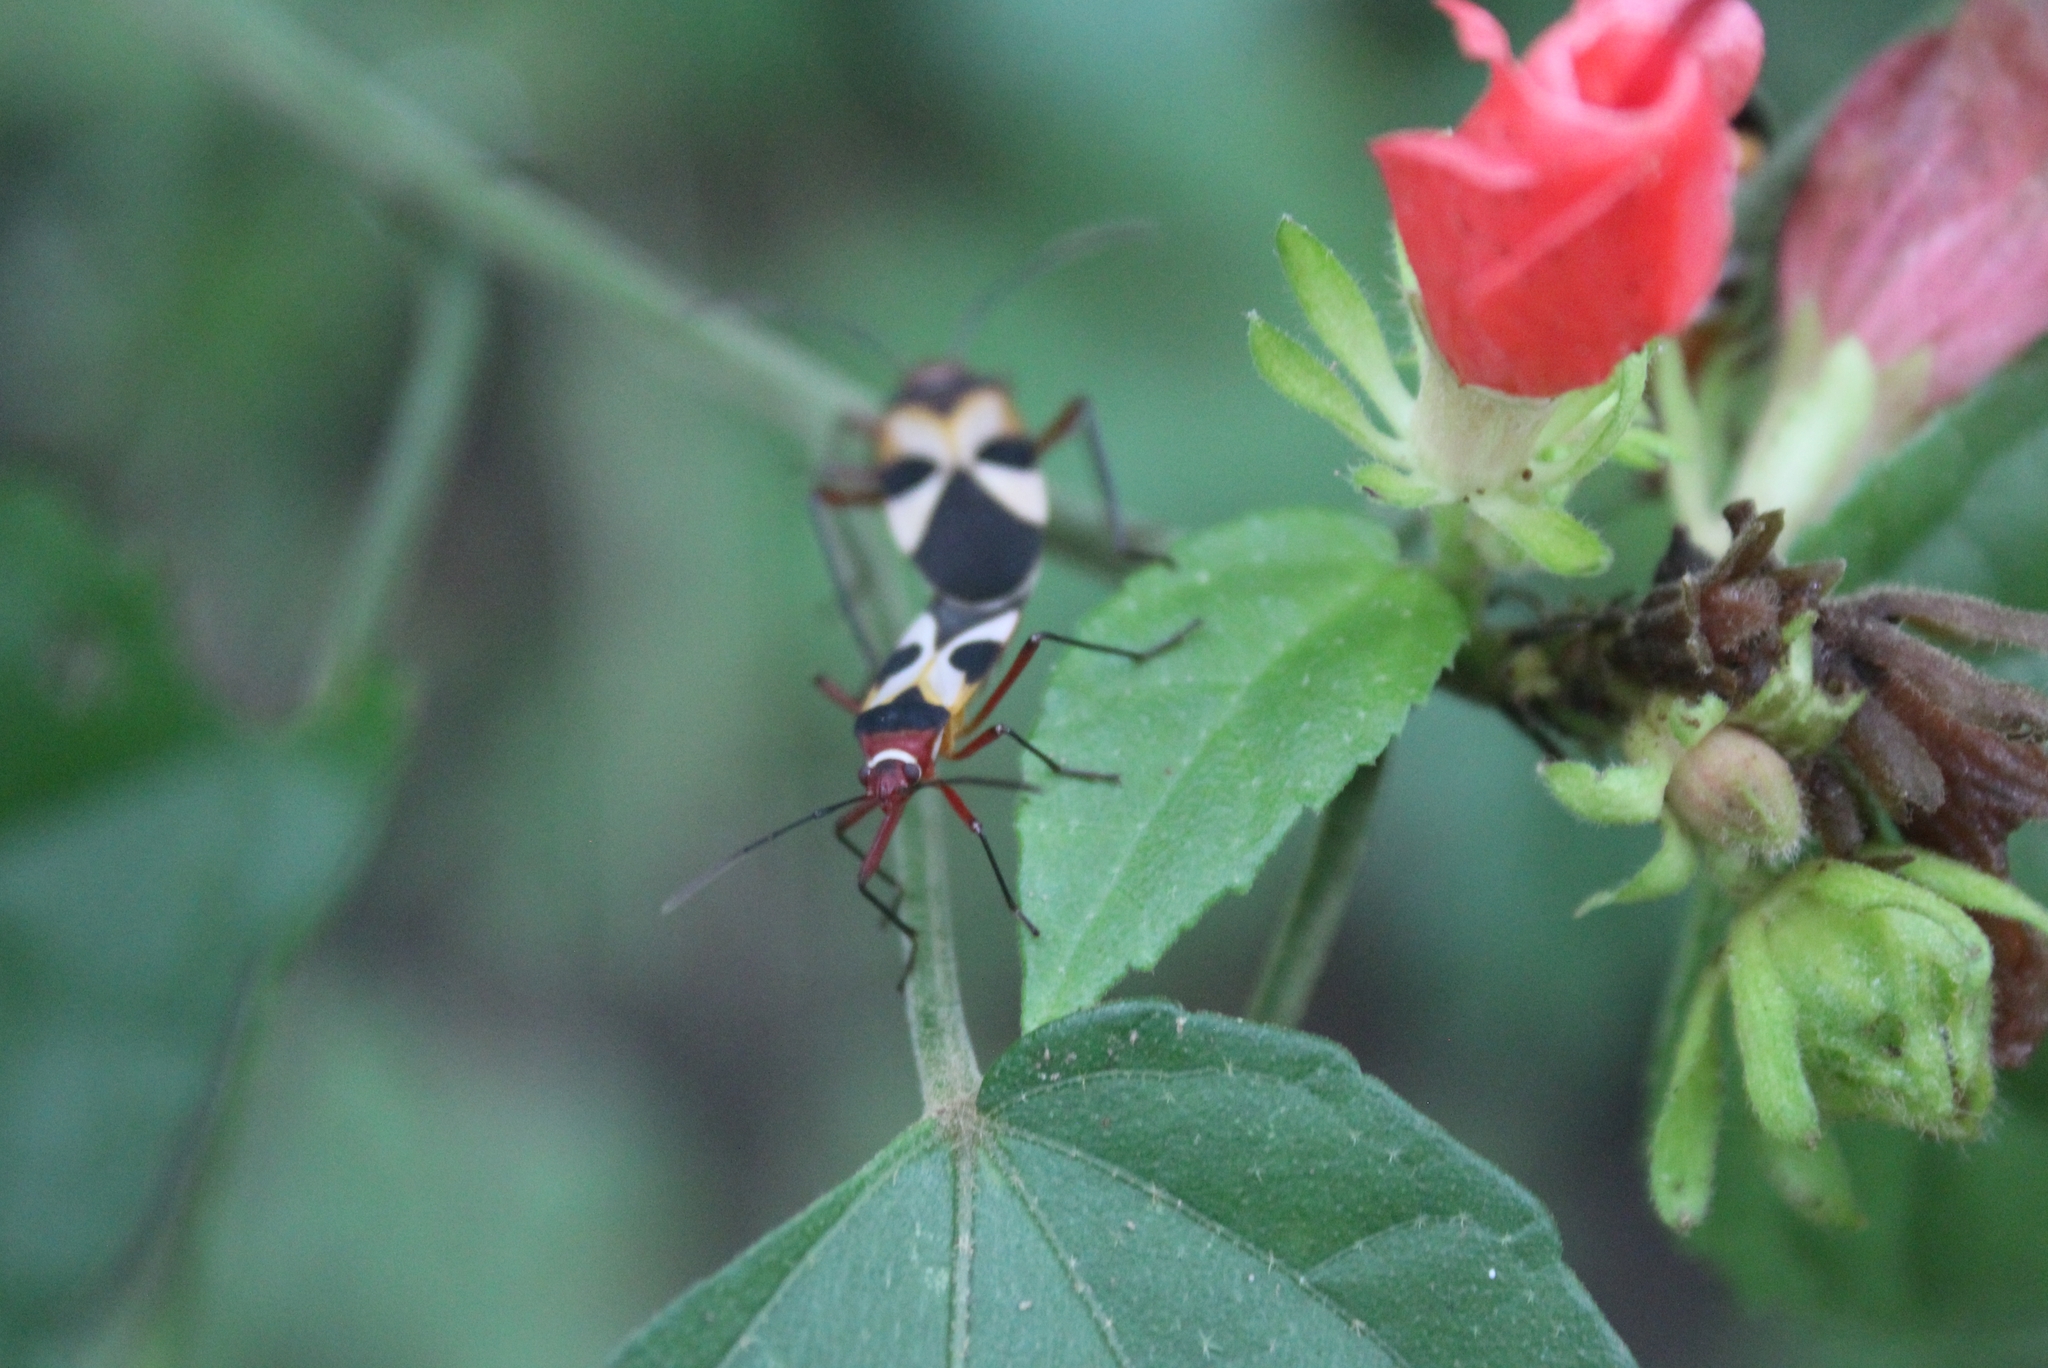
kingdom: Animalia
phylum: Arthropoda
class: Insecta
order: Hemiptera
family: Pyrrhocoridae
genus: Dysdercus
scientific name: Dysdercus concinnus
